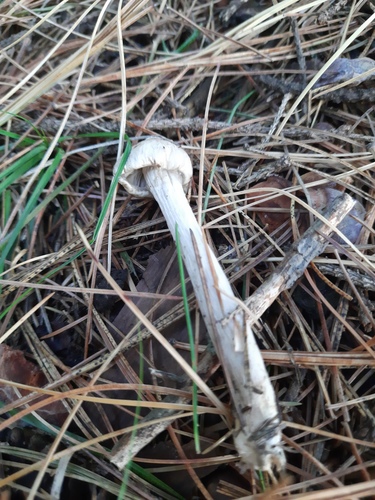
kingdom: Fungi
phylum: Basidiomycota
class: Agaricomycetes
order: Agaricales
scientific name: Agaricales
